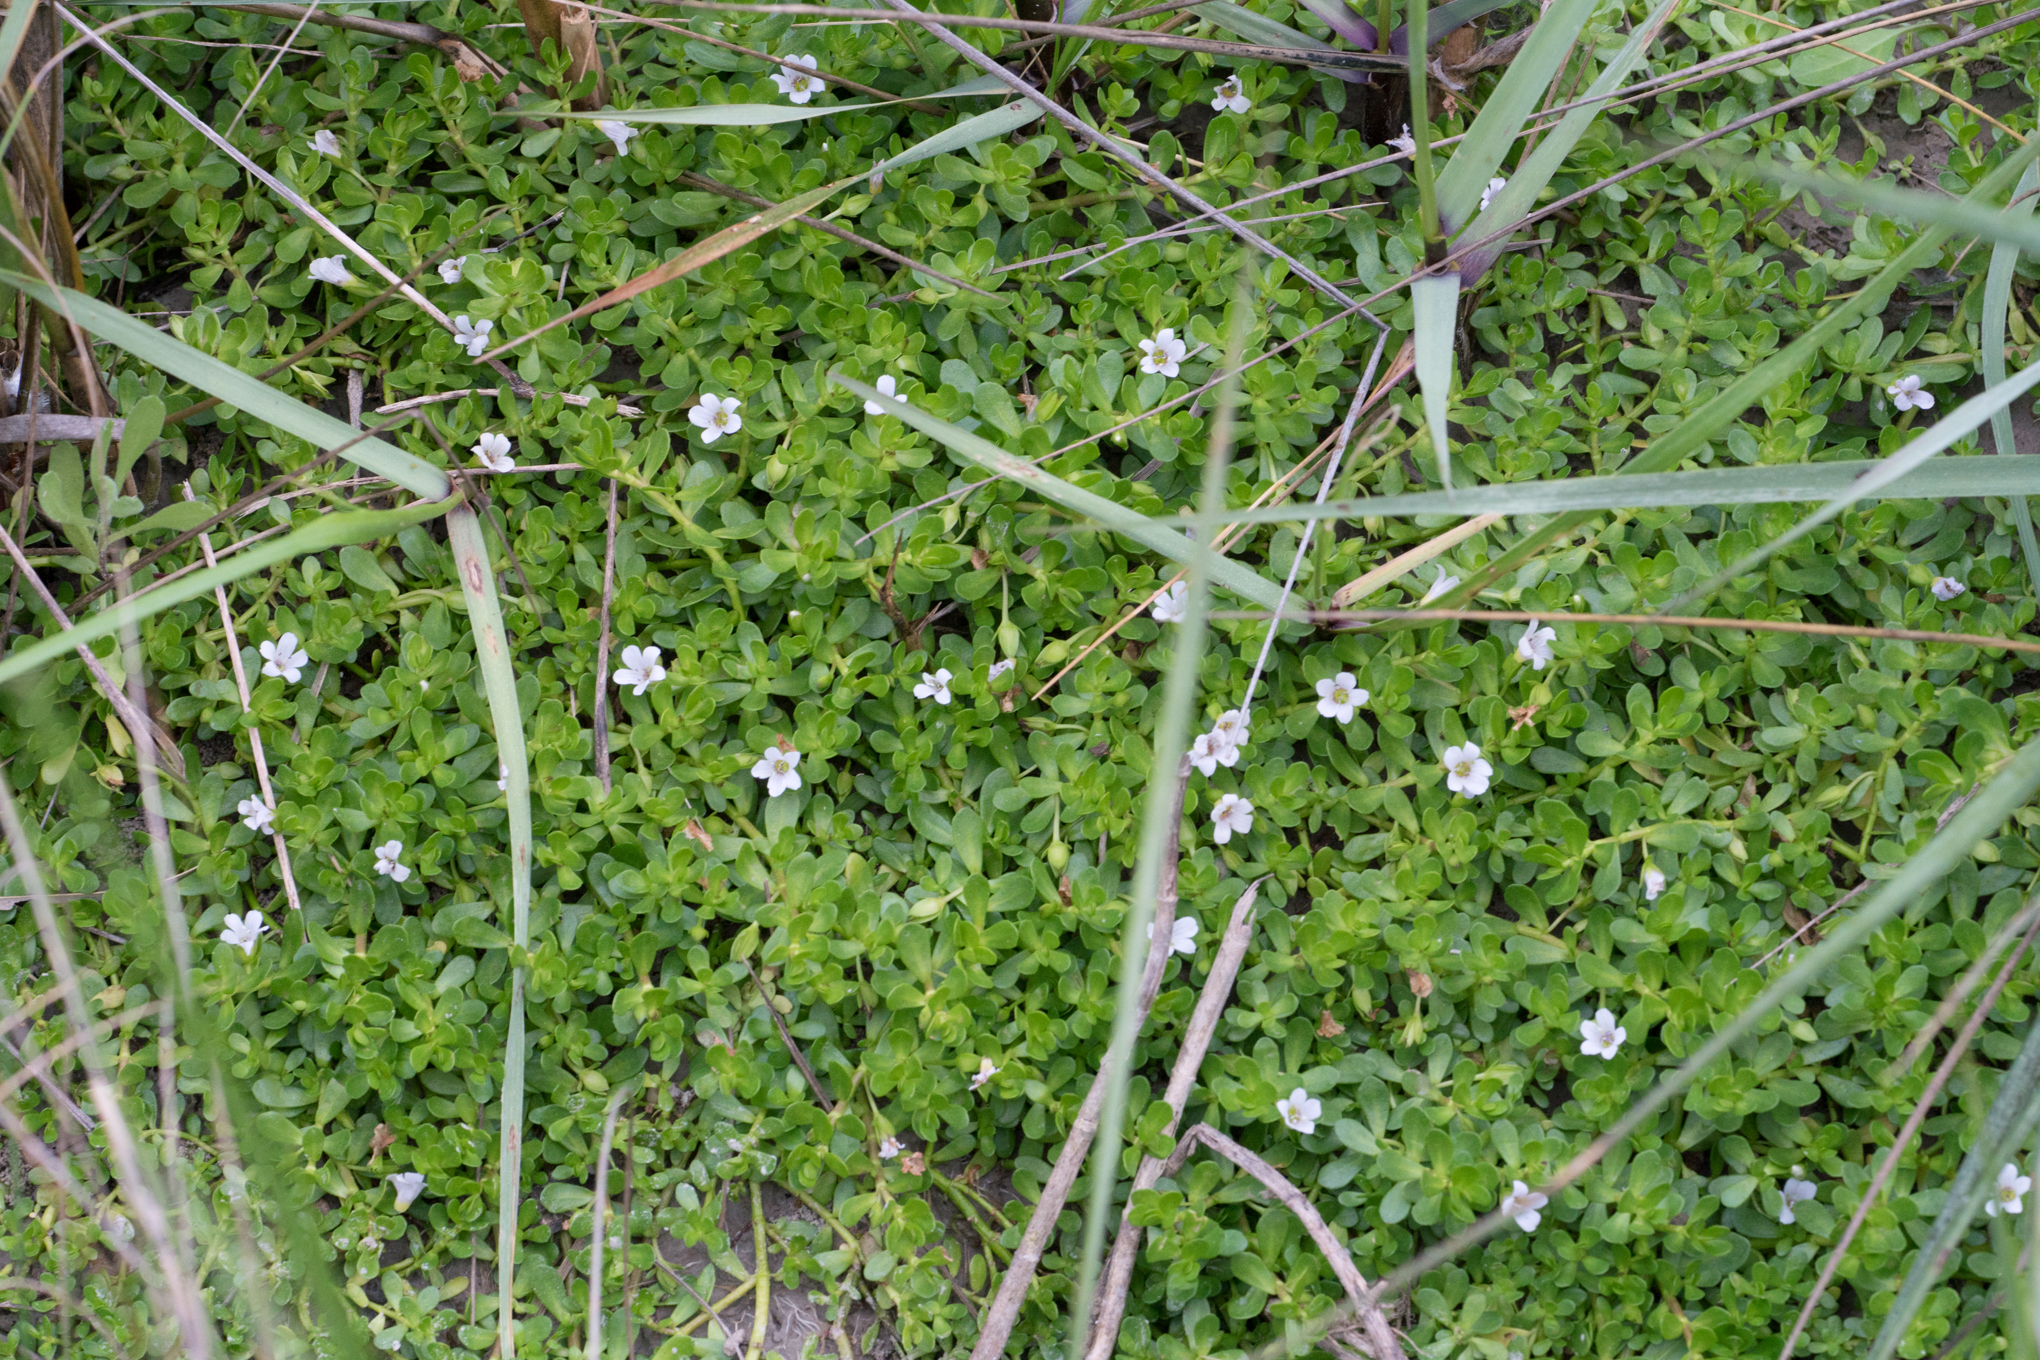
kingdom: Plantae
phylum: Tracheophyta
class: Magnoliopsida
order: Lamiales
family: Plantaginaceae
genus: Bacopa
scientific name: Bacopa monnieri
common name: Indian-pennywort
